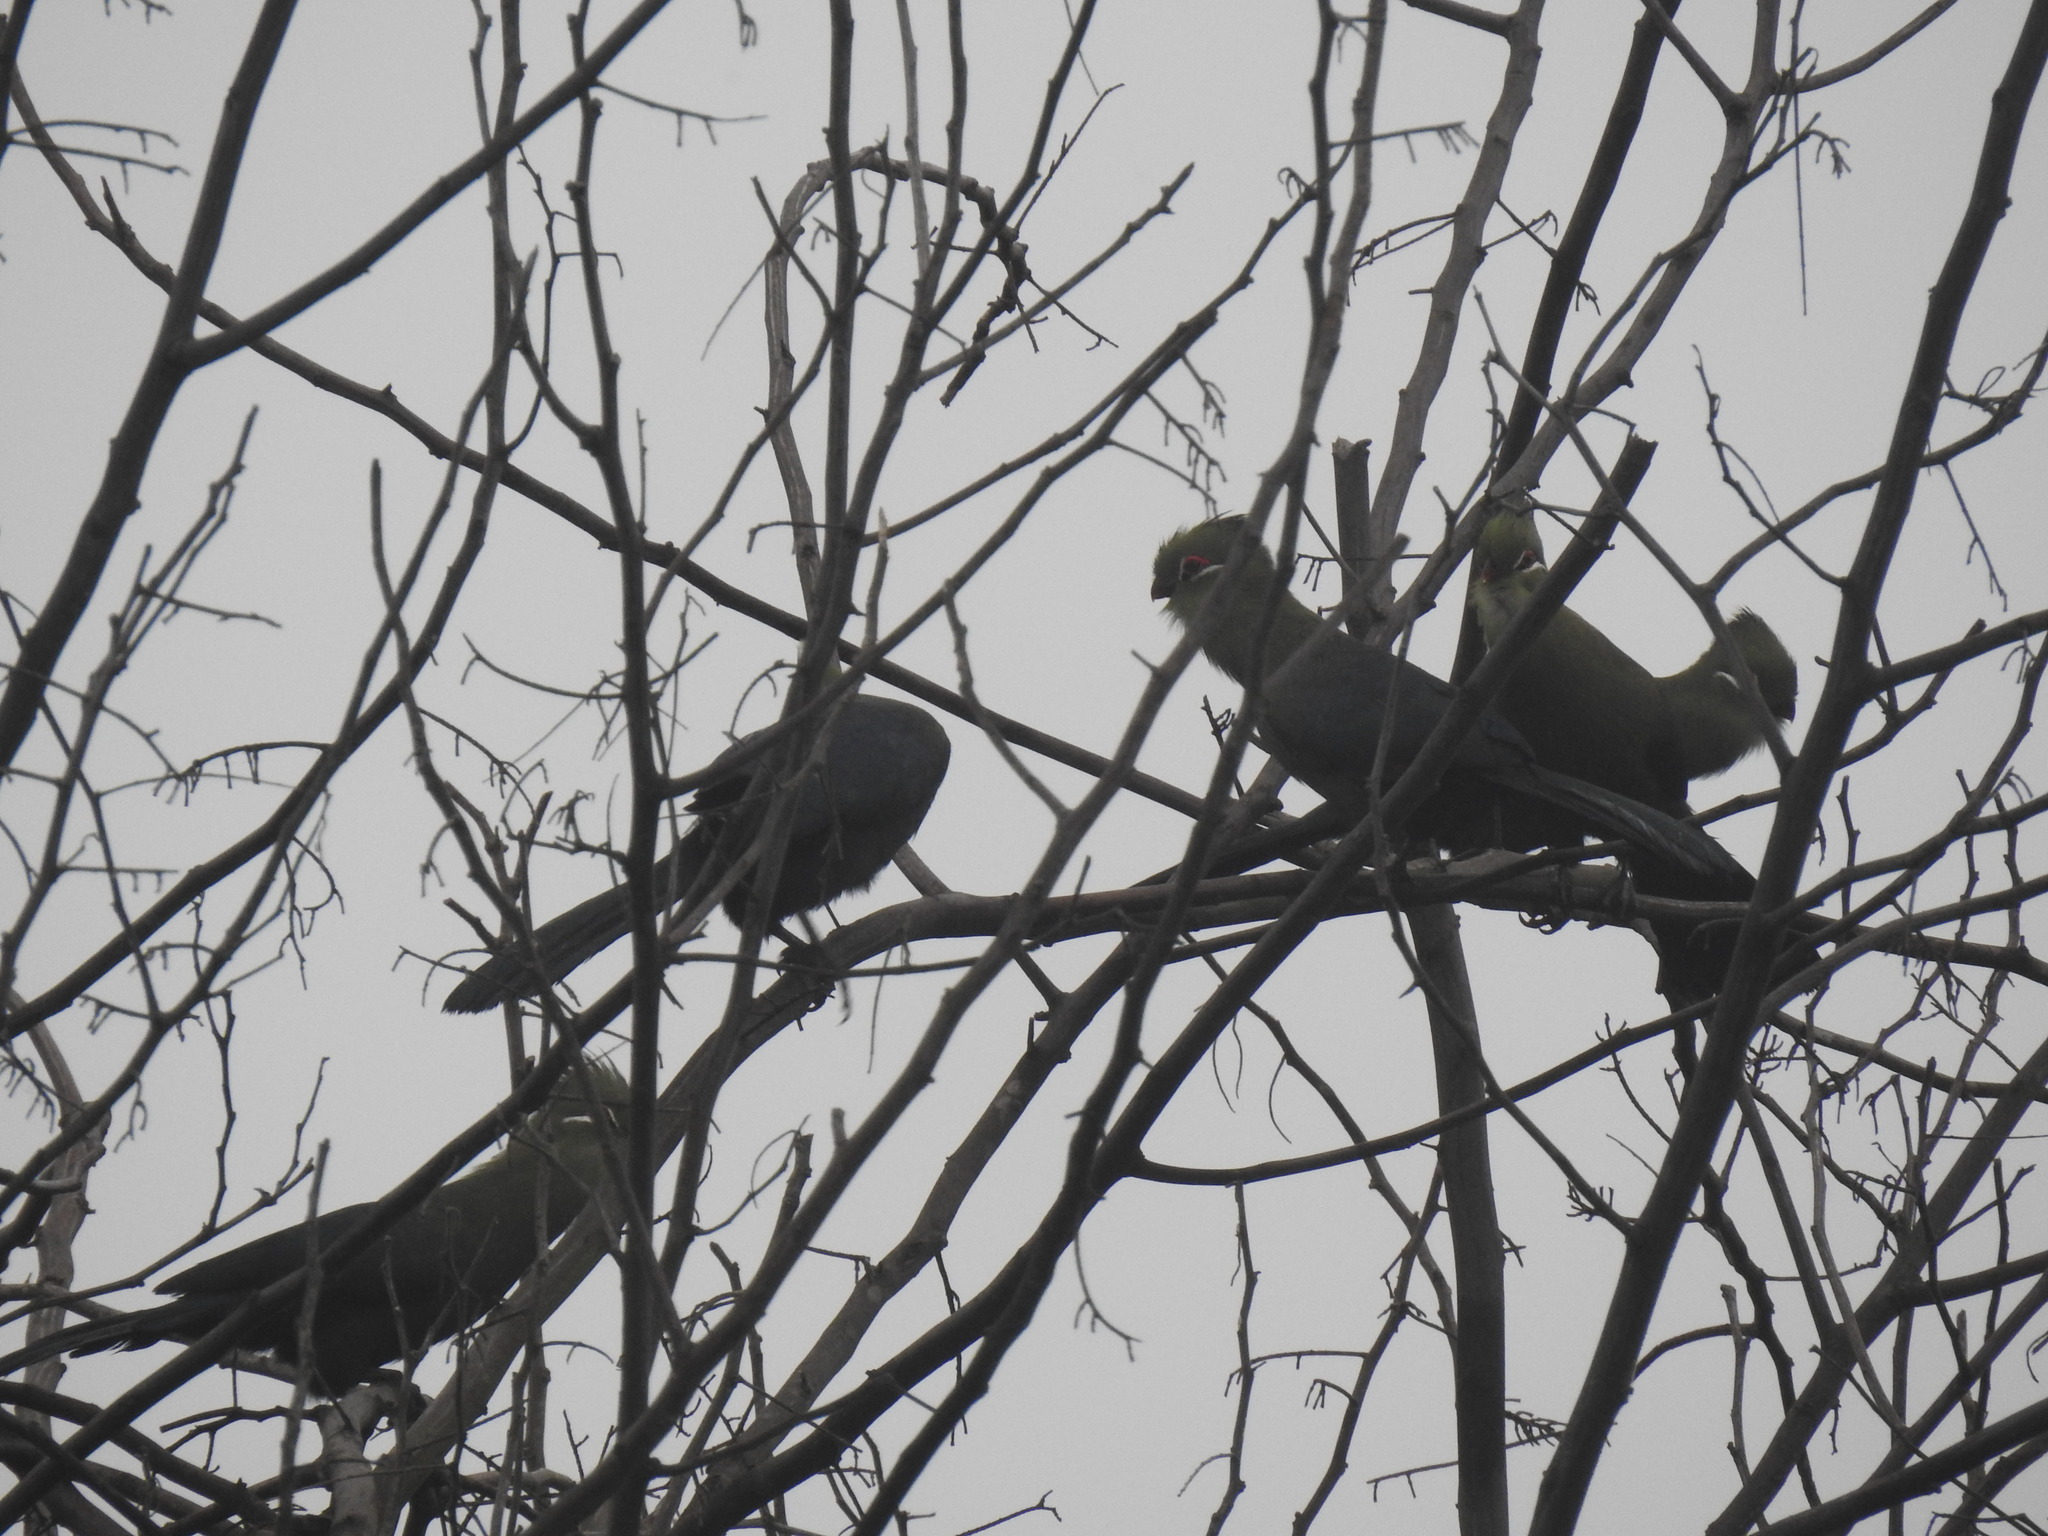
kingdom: Animalia
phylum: Chordata
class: Aves
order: Musophagiformes
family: Musophagidae
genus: Tauraco
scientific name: Tauraco corythaix
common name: Knysna turaco
